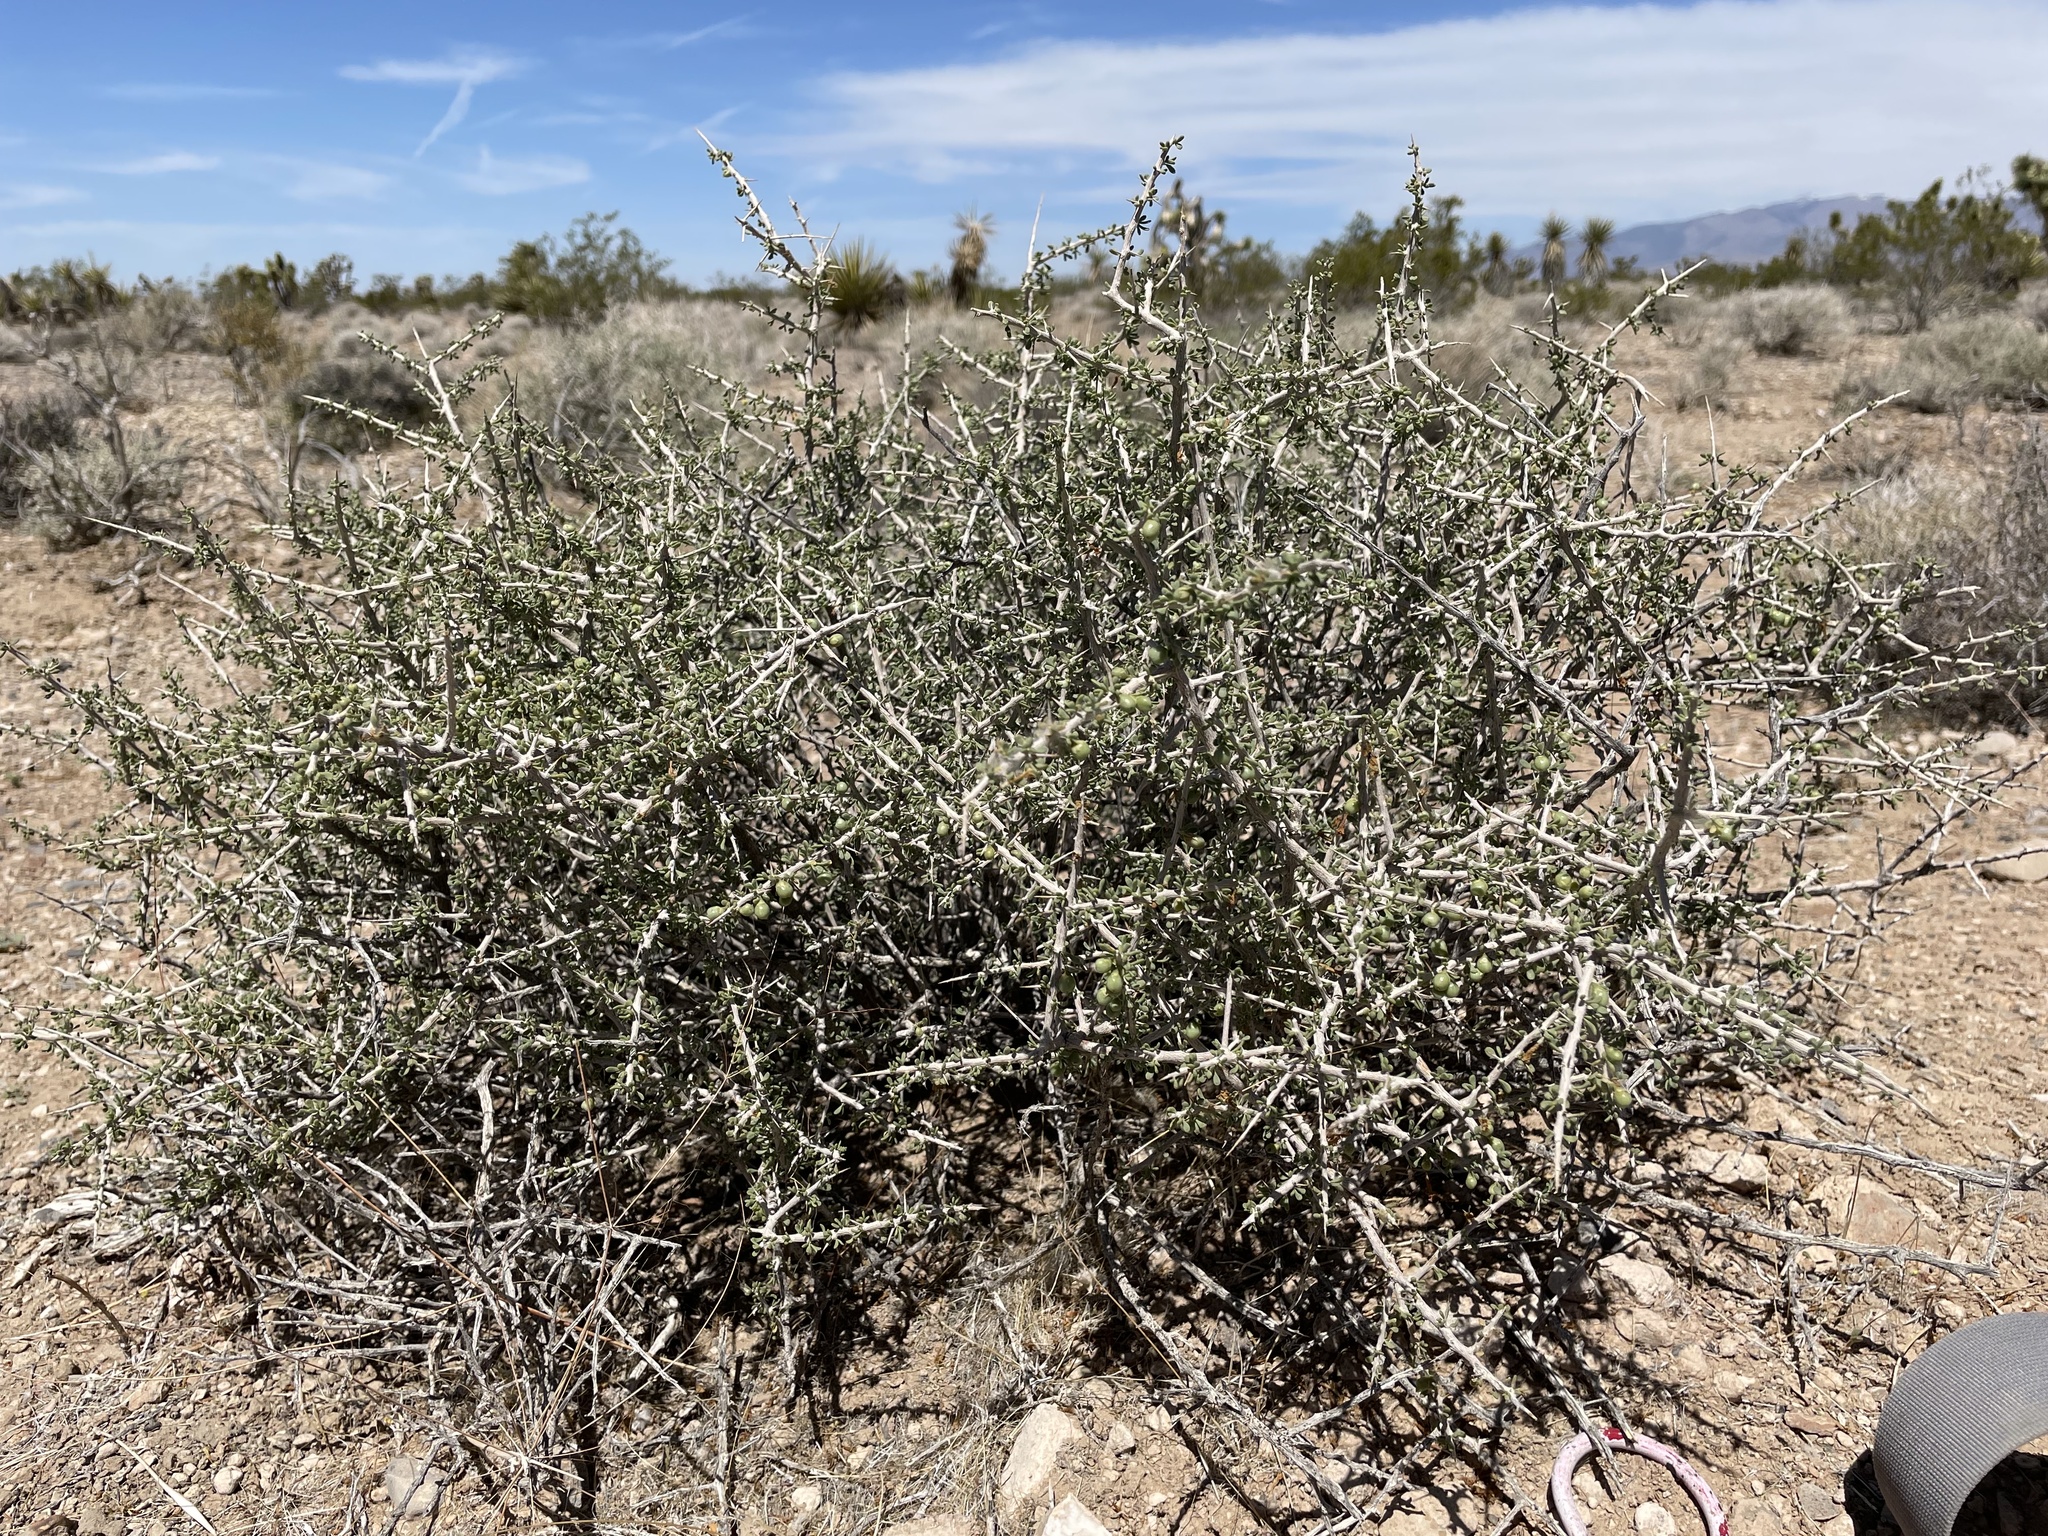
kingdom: Plantae
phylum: Tracheophyta
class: Magnoliopsida
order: Solanales
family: Solanaceae
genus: Lycium
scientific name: Lycium andersonii
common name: Water-jacket
